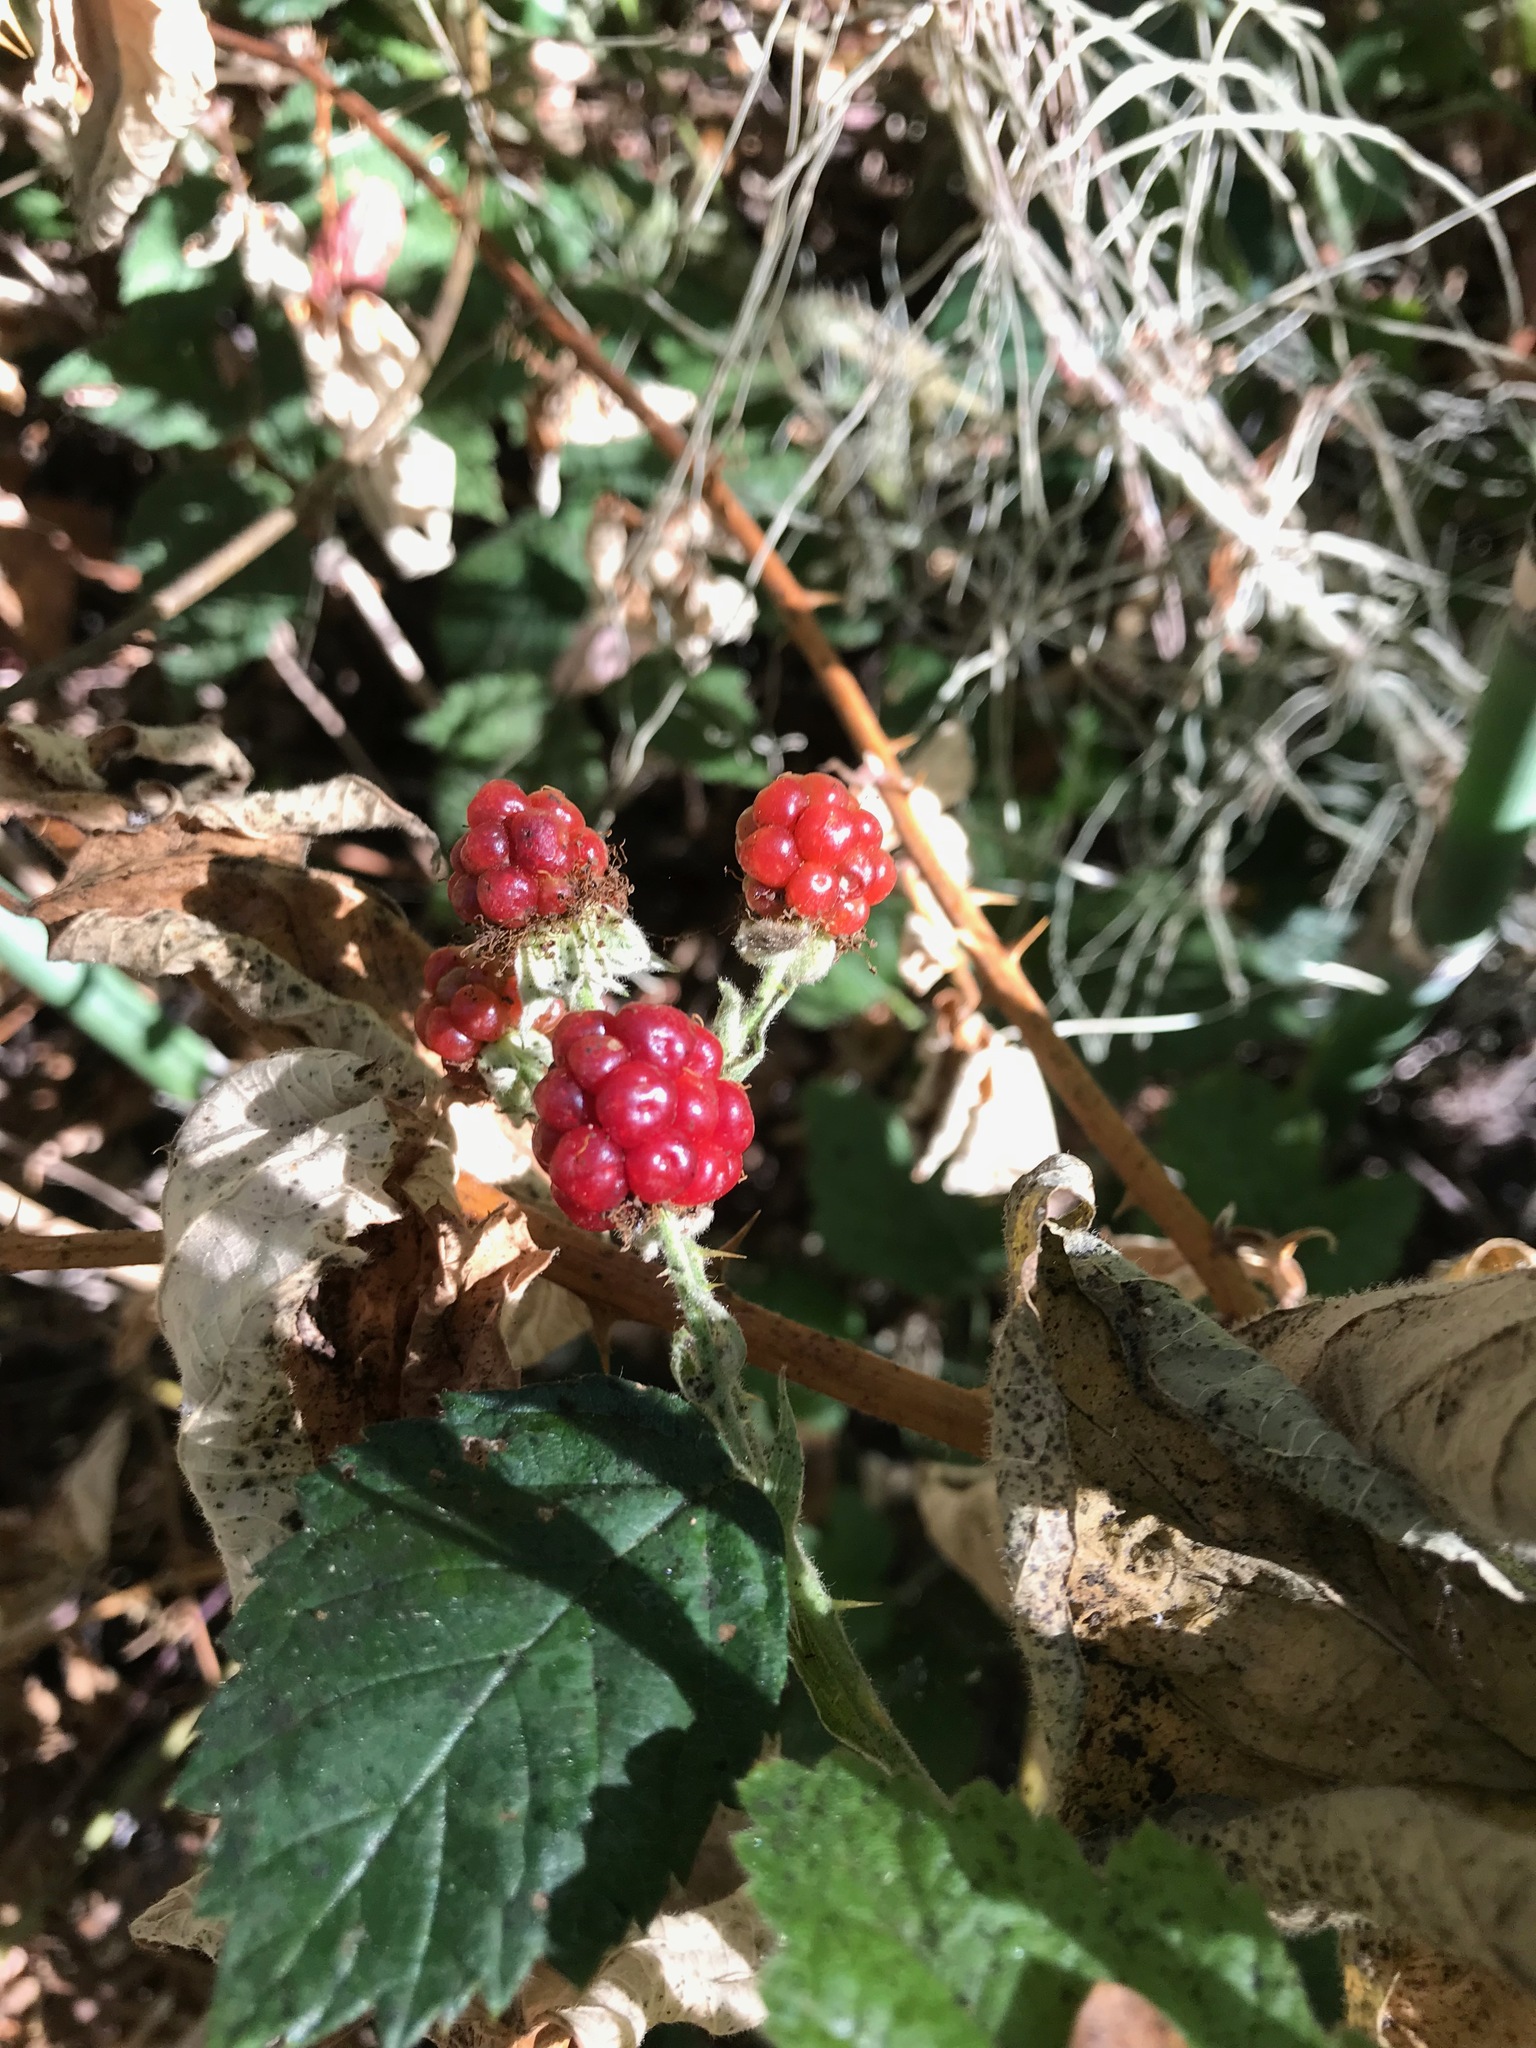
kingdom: Plantae
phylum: Tracheophyta
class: Magnoliopsida
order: Rosales
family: Rosaceae
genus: Rubus
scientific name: Rubus armeniacus
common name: Himalayan blackberry
